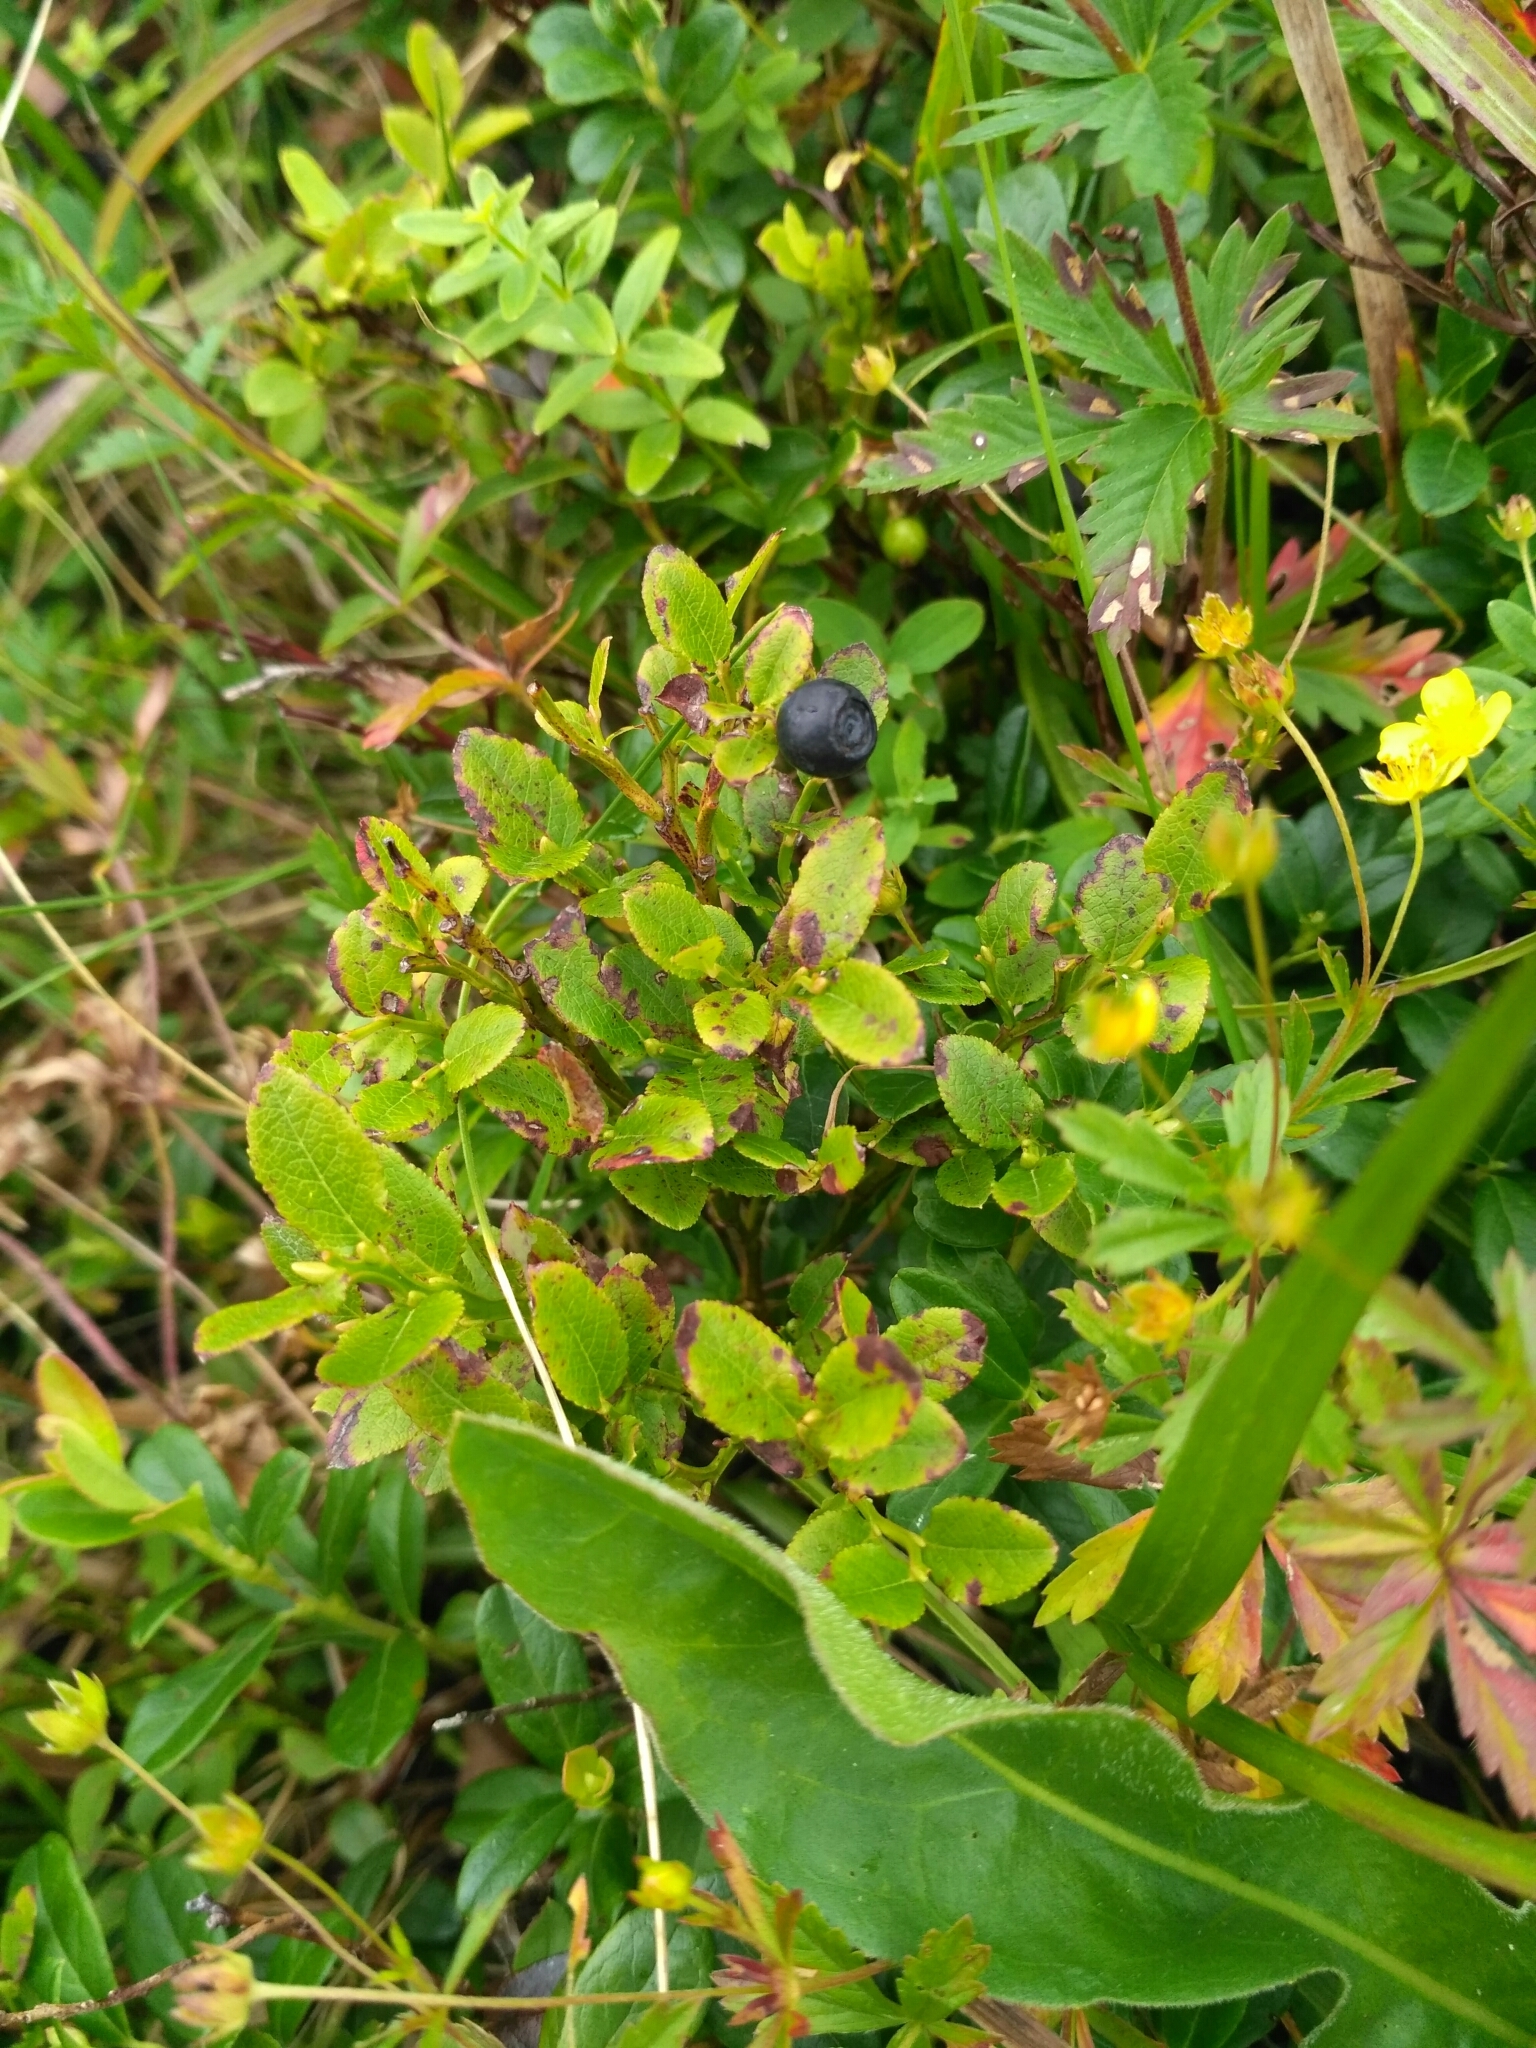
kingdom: Plantae
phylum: Tracheophyta
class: Magnoliopsida
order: Ericales
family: Ericaceae
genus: Vaccinium
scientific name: Vaccinium myrtillus
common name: Bilberry
